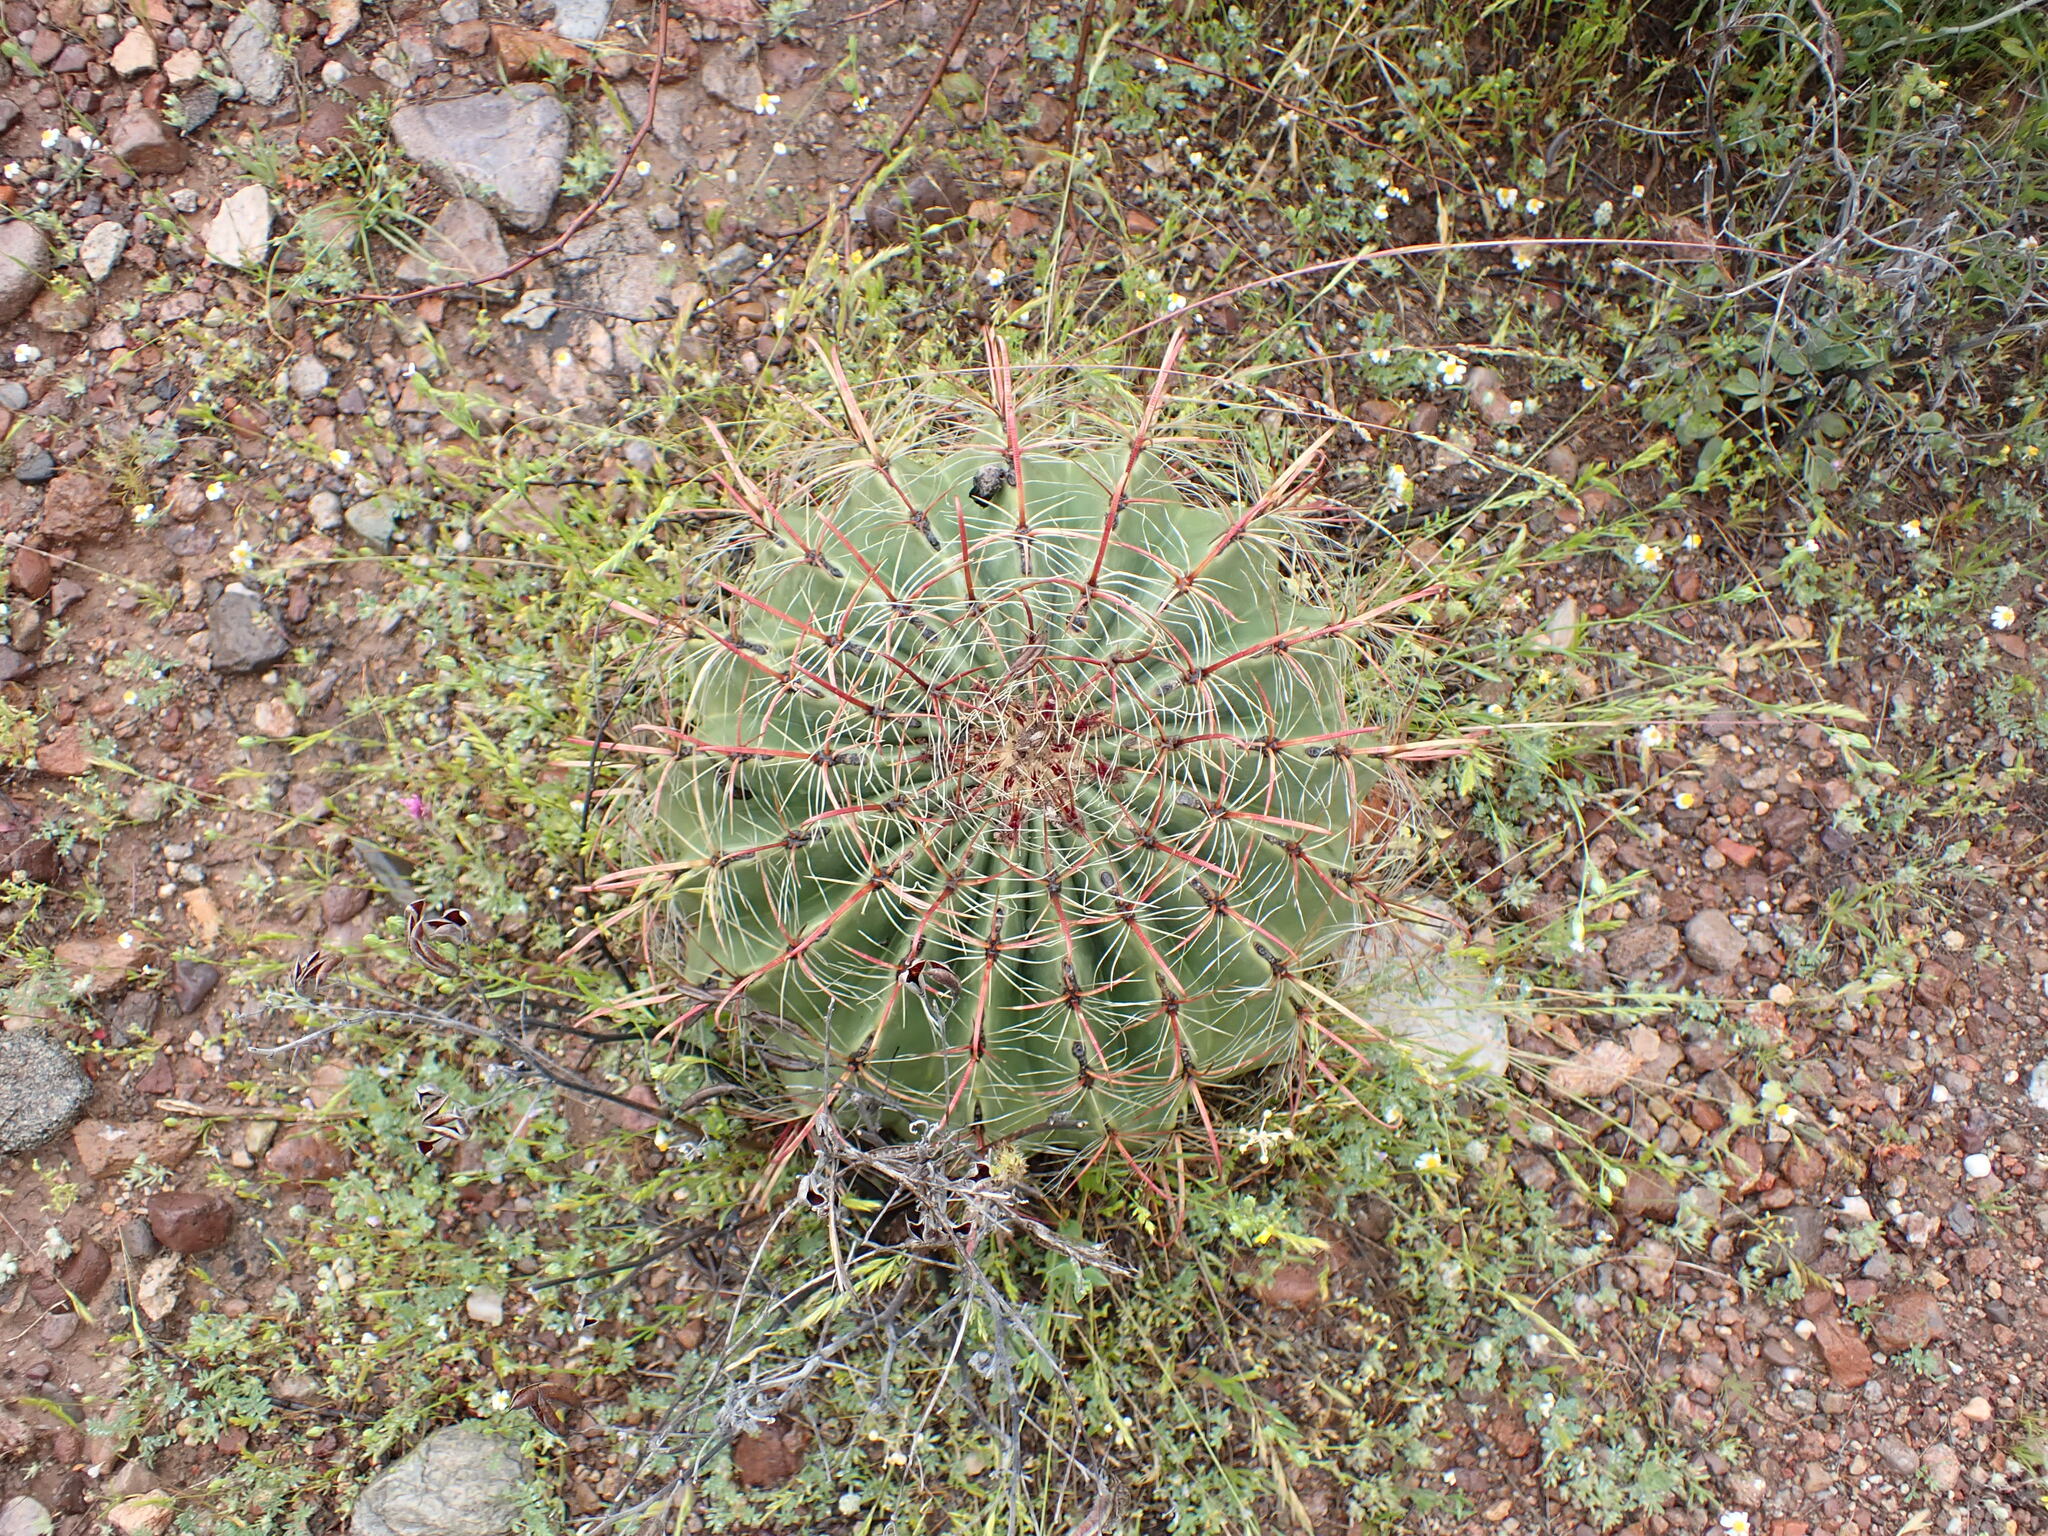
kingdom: Plantae
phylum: Tracheophyta
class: Magnoliopsida
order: Caryophyllales
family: Cactaceae
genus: Ferocactus
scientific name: Ferocactus wislizeni
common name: Candy barrel cactus
